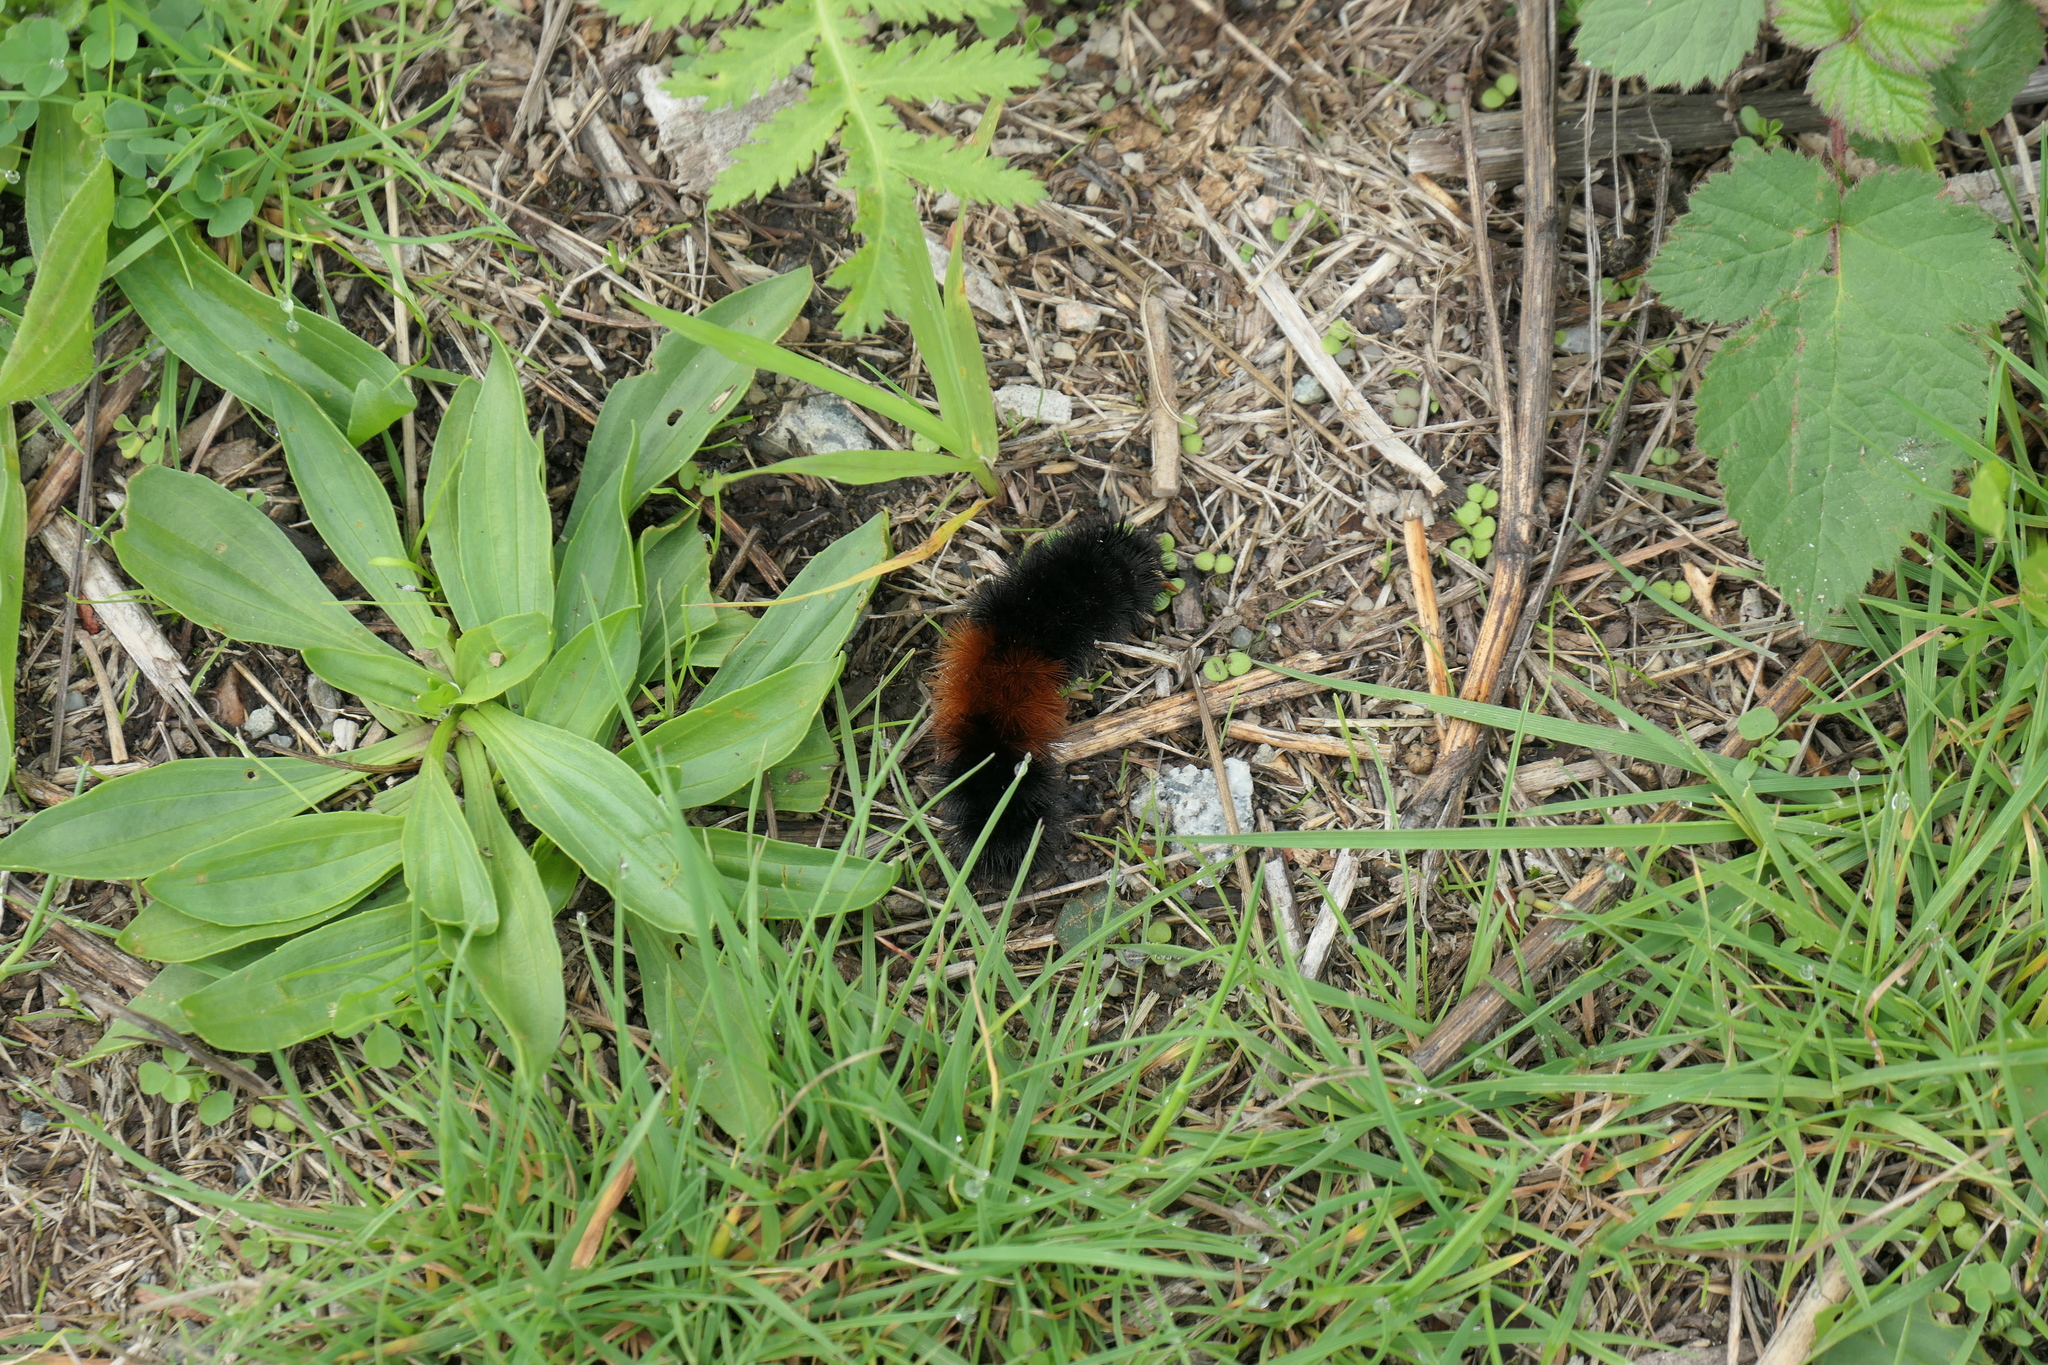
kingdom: Animalia
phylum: Arthropoda
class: Insecta
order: Lepidoptera
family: Erebidae
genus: Pyrrharctia
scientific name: Pyrrharctia isabella
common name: Isabella tiger moth
